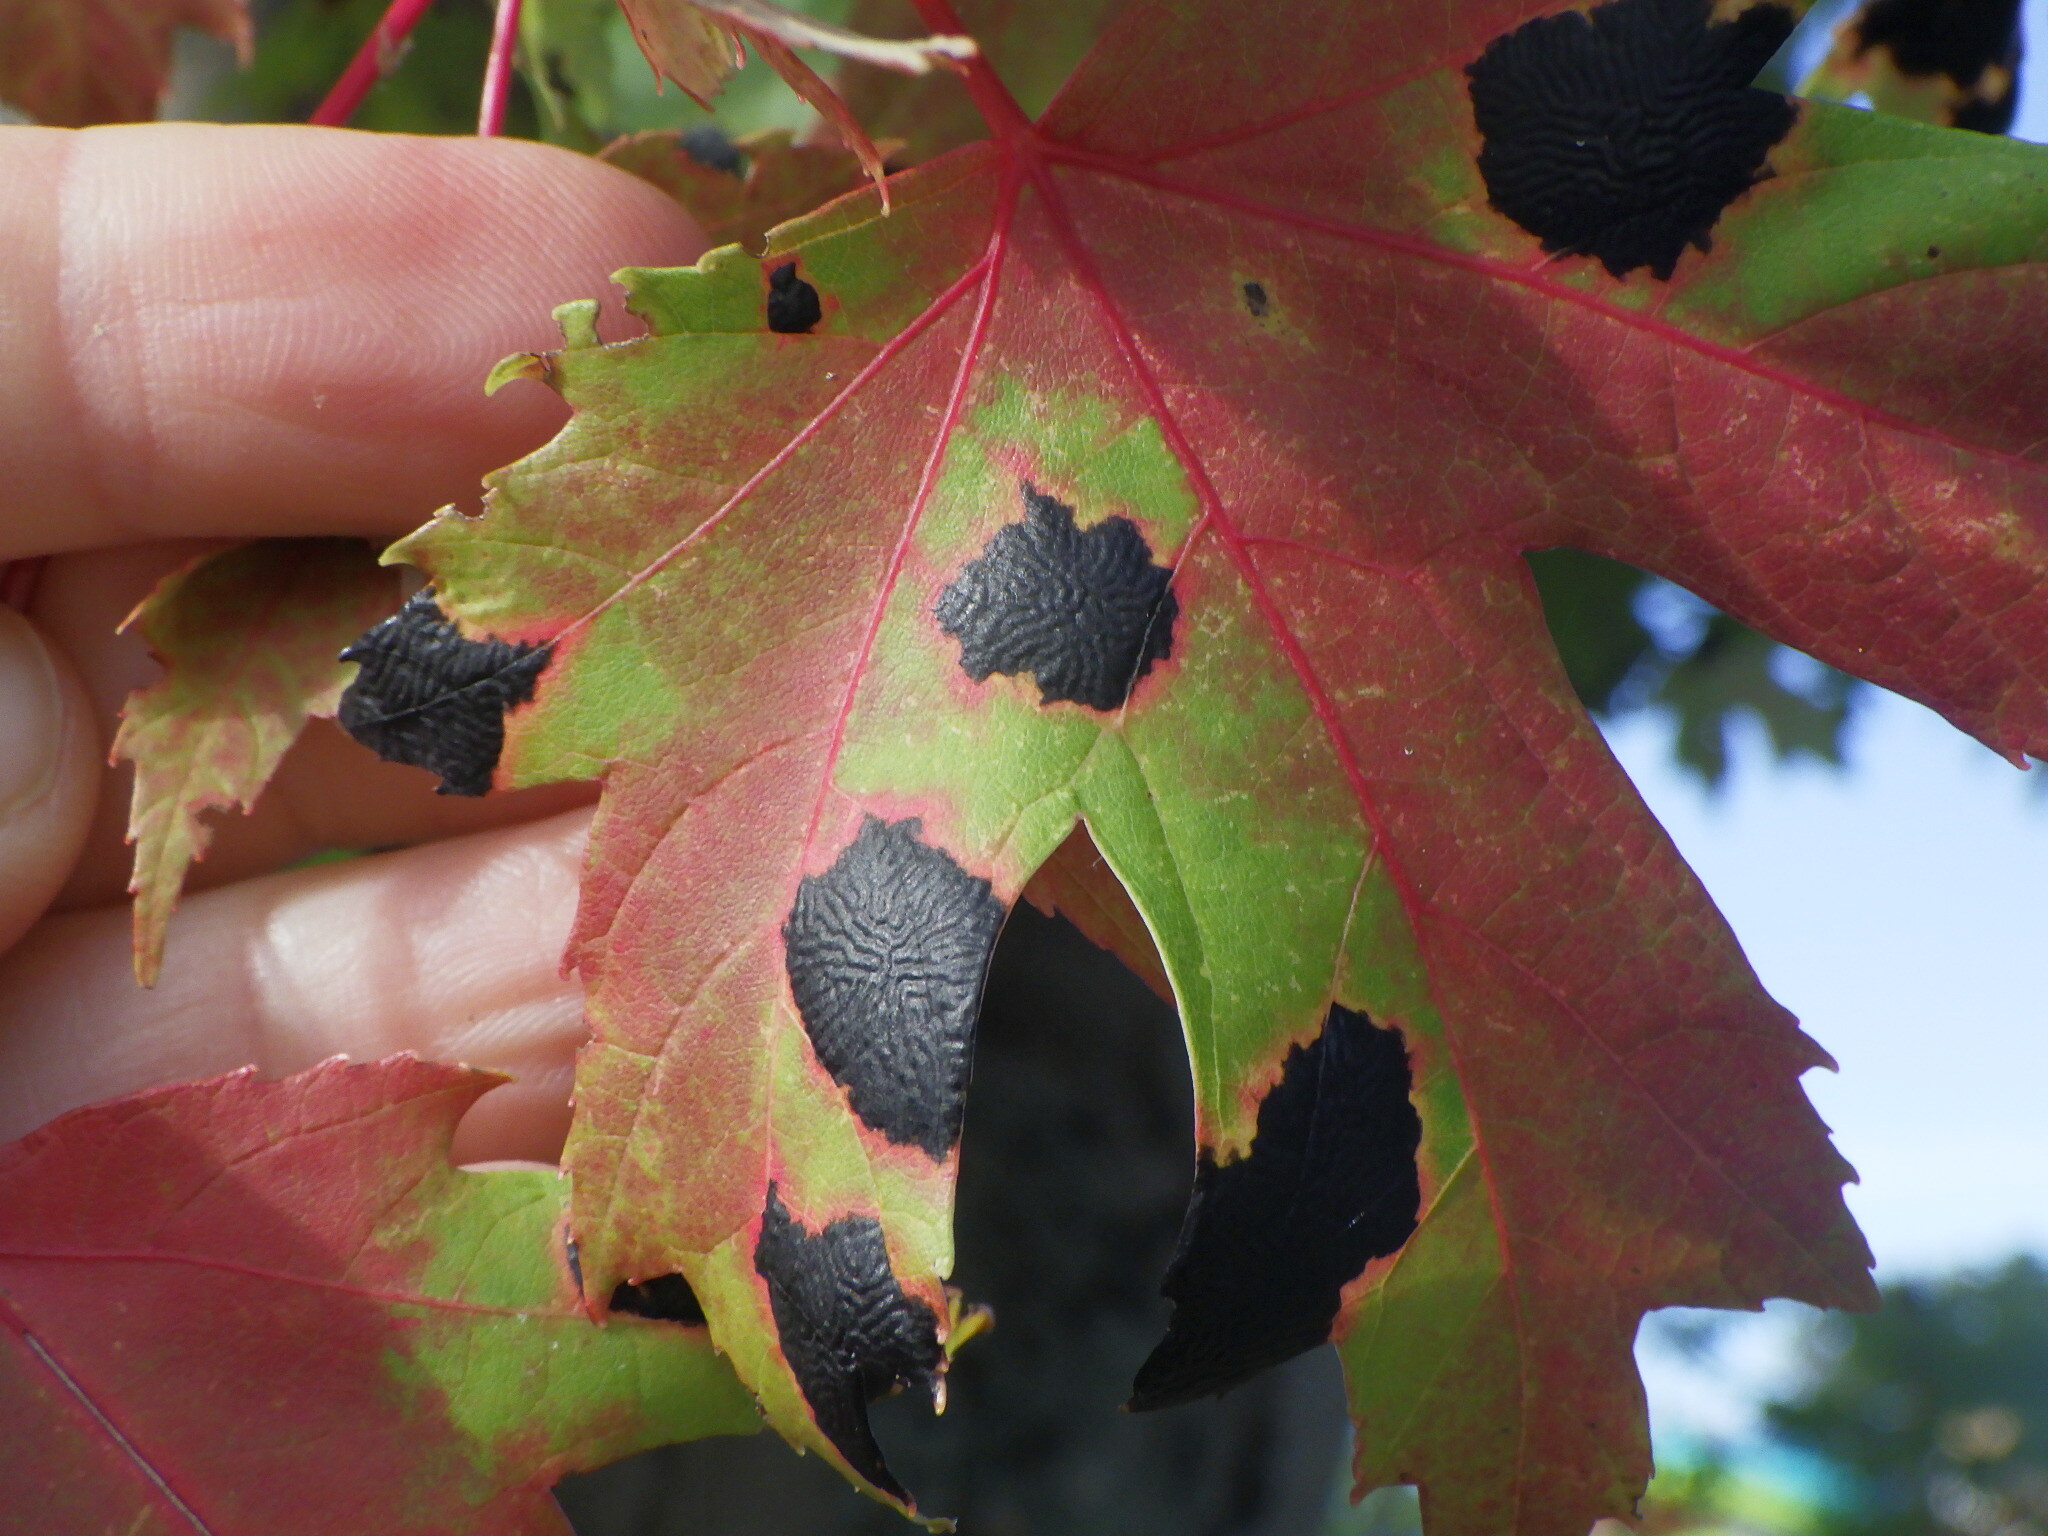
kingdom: Fungi
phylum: Ascomycota
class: Leotiomycetes
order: Rhytismatales
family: Rhytismataceae
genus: Rhytisma
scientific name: Rhytisma americanum
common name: American tar spot
